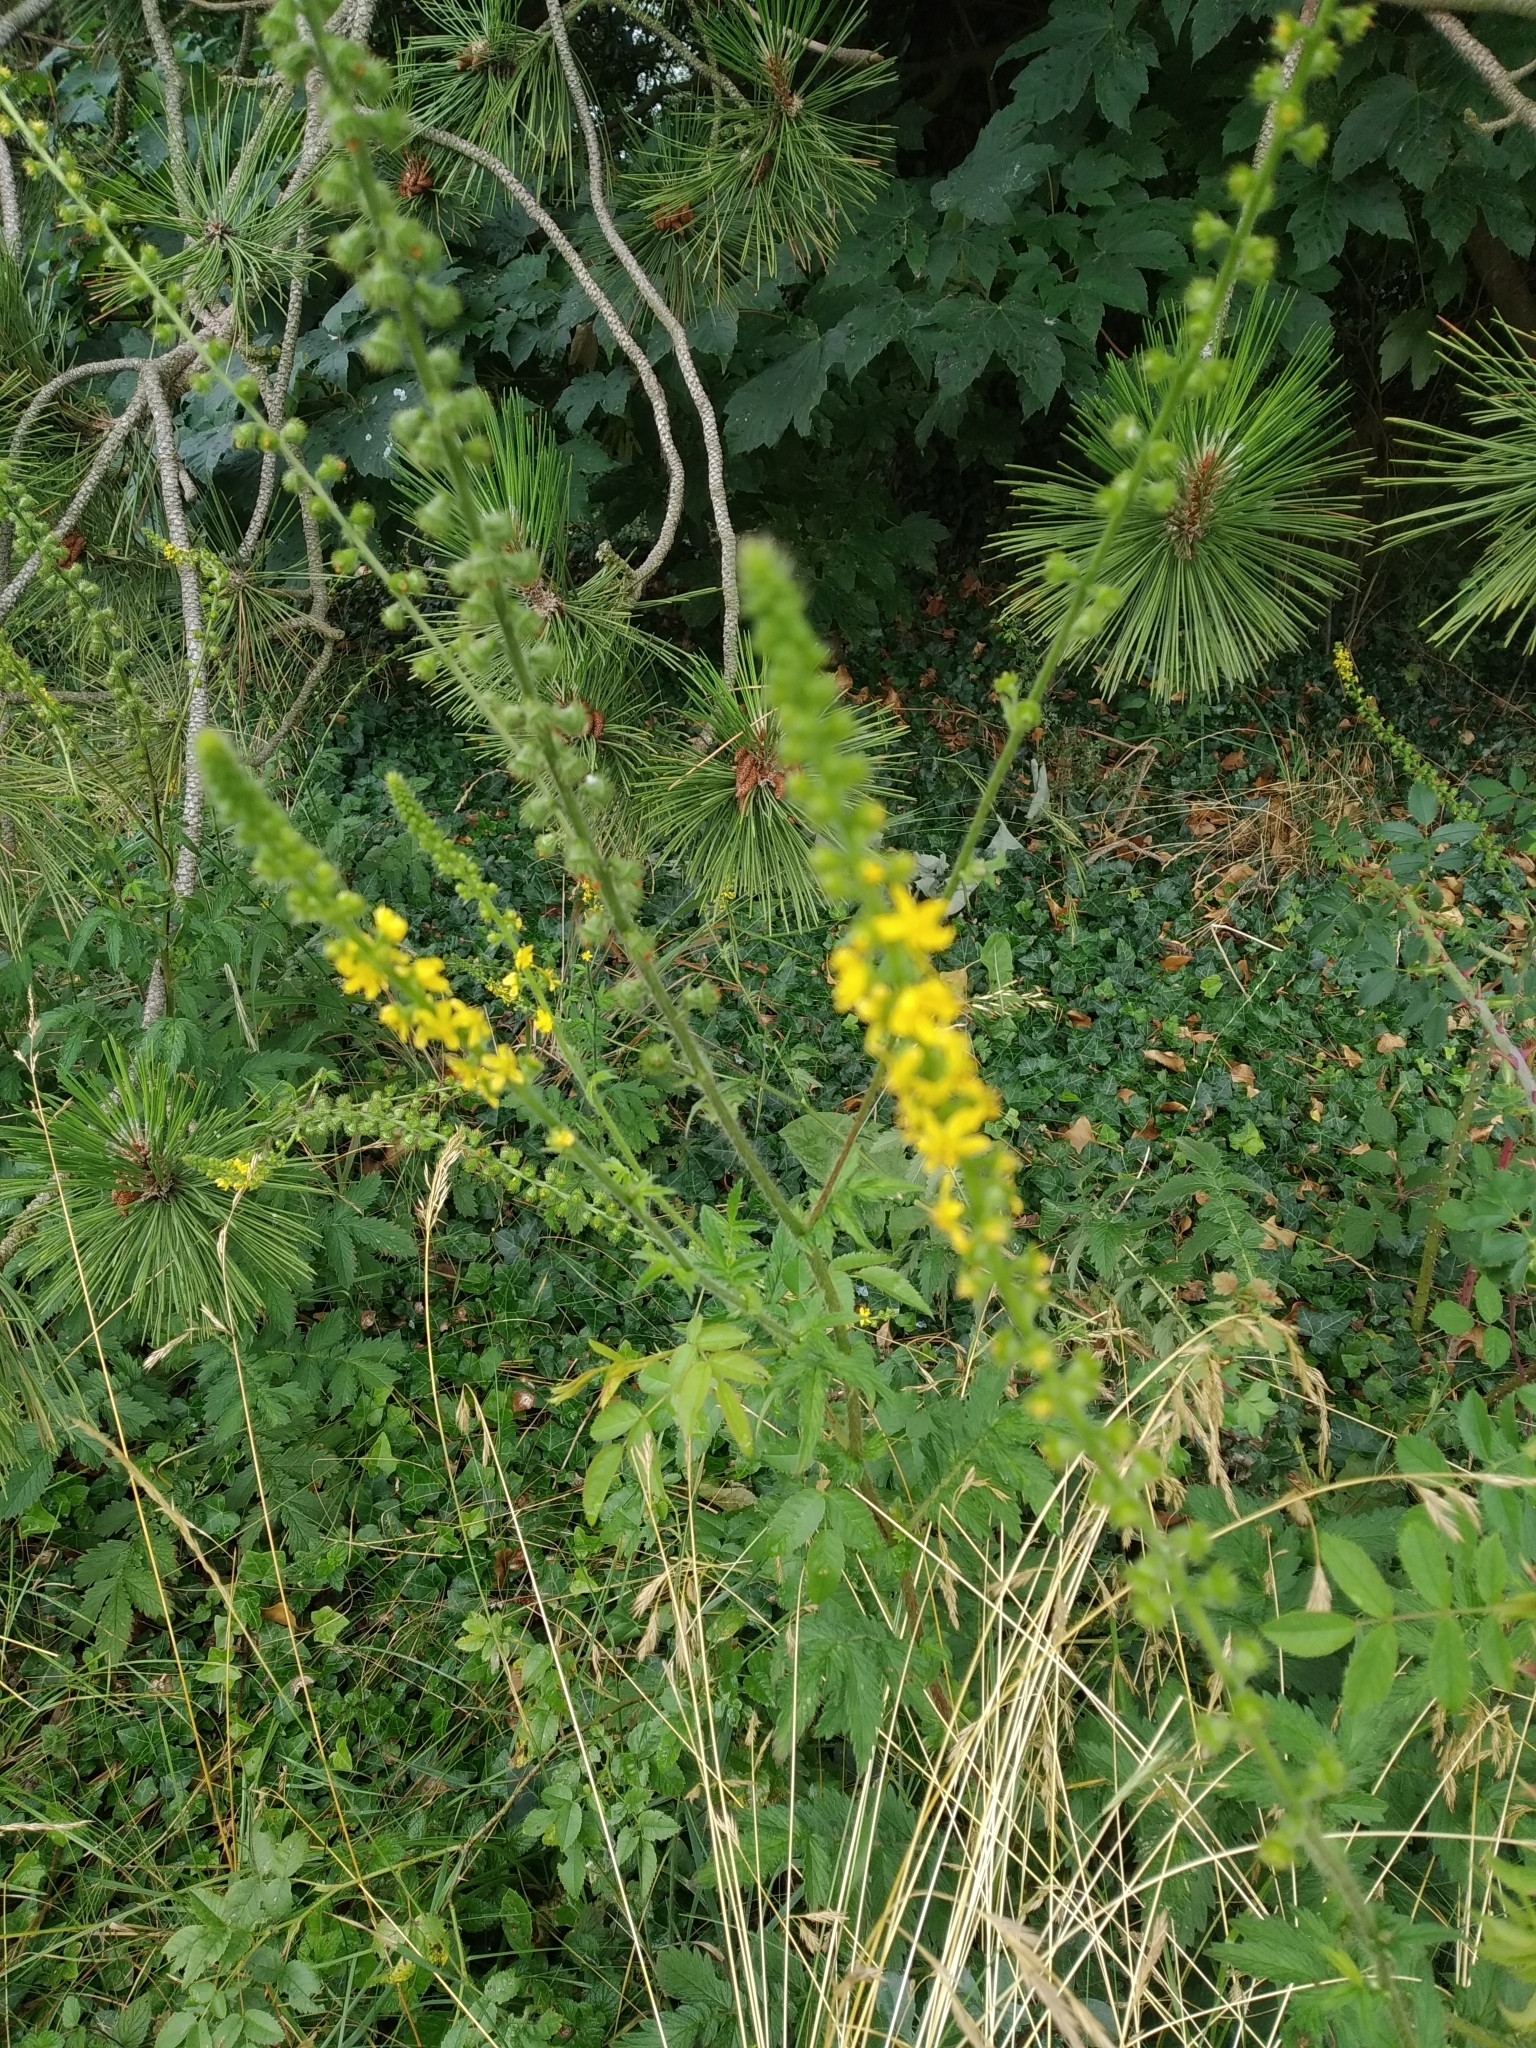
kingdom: Plantae
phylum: Tracheophyta
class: Magnoliopsida
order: Rosales
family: Rosaceae
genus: Agrimonia
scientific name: Agrimonia eupatoria
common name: Agrimony
